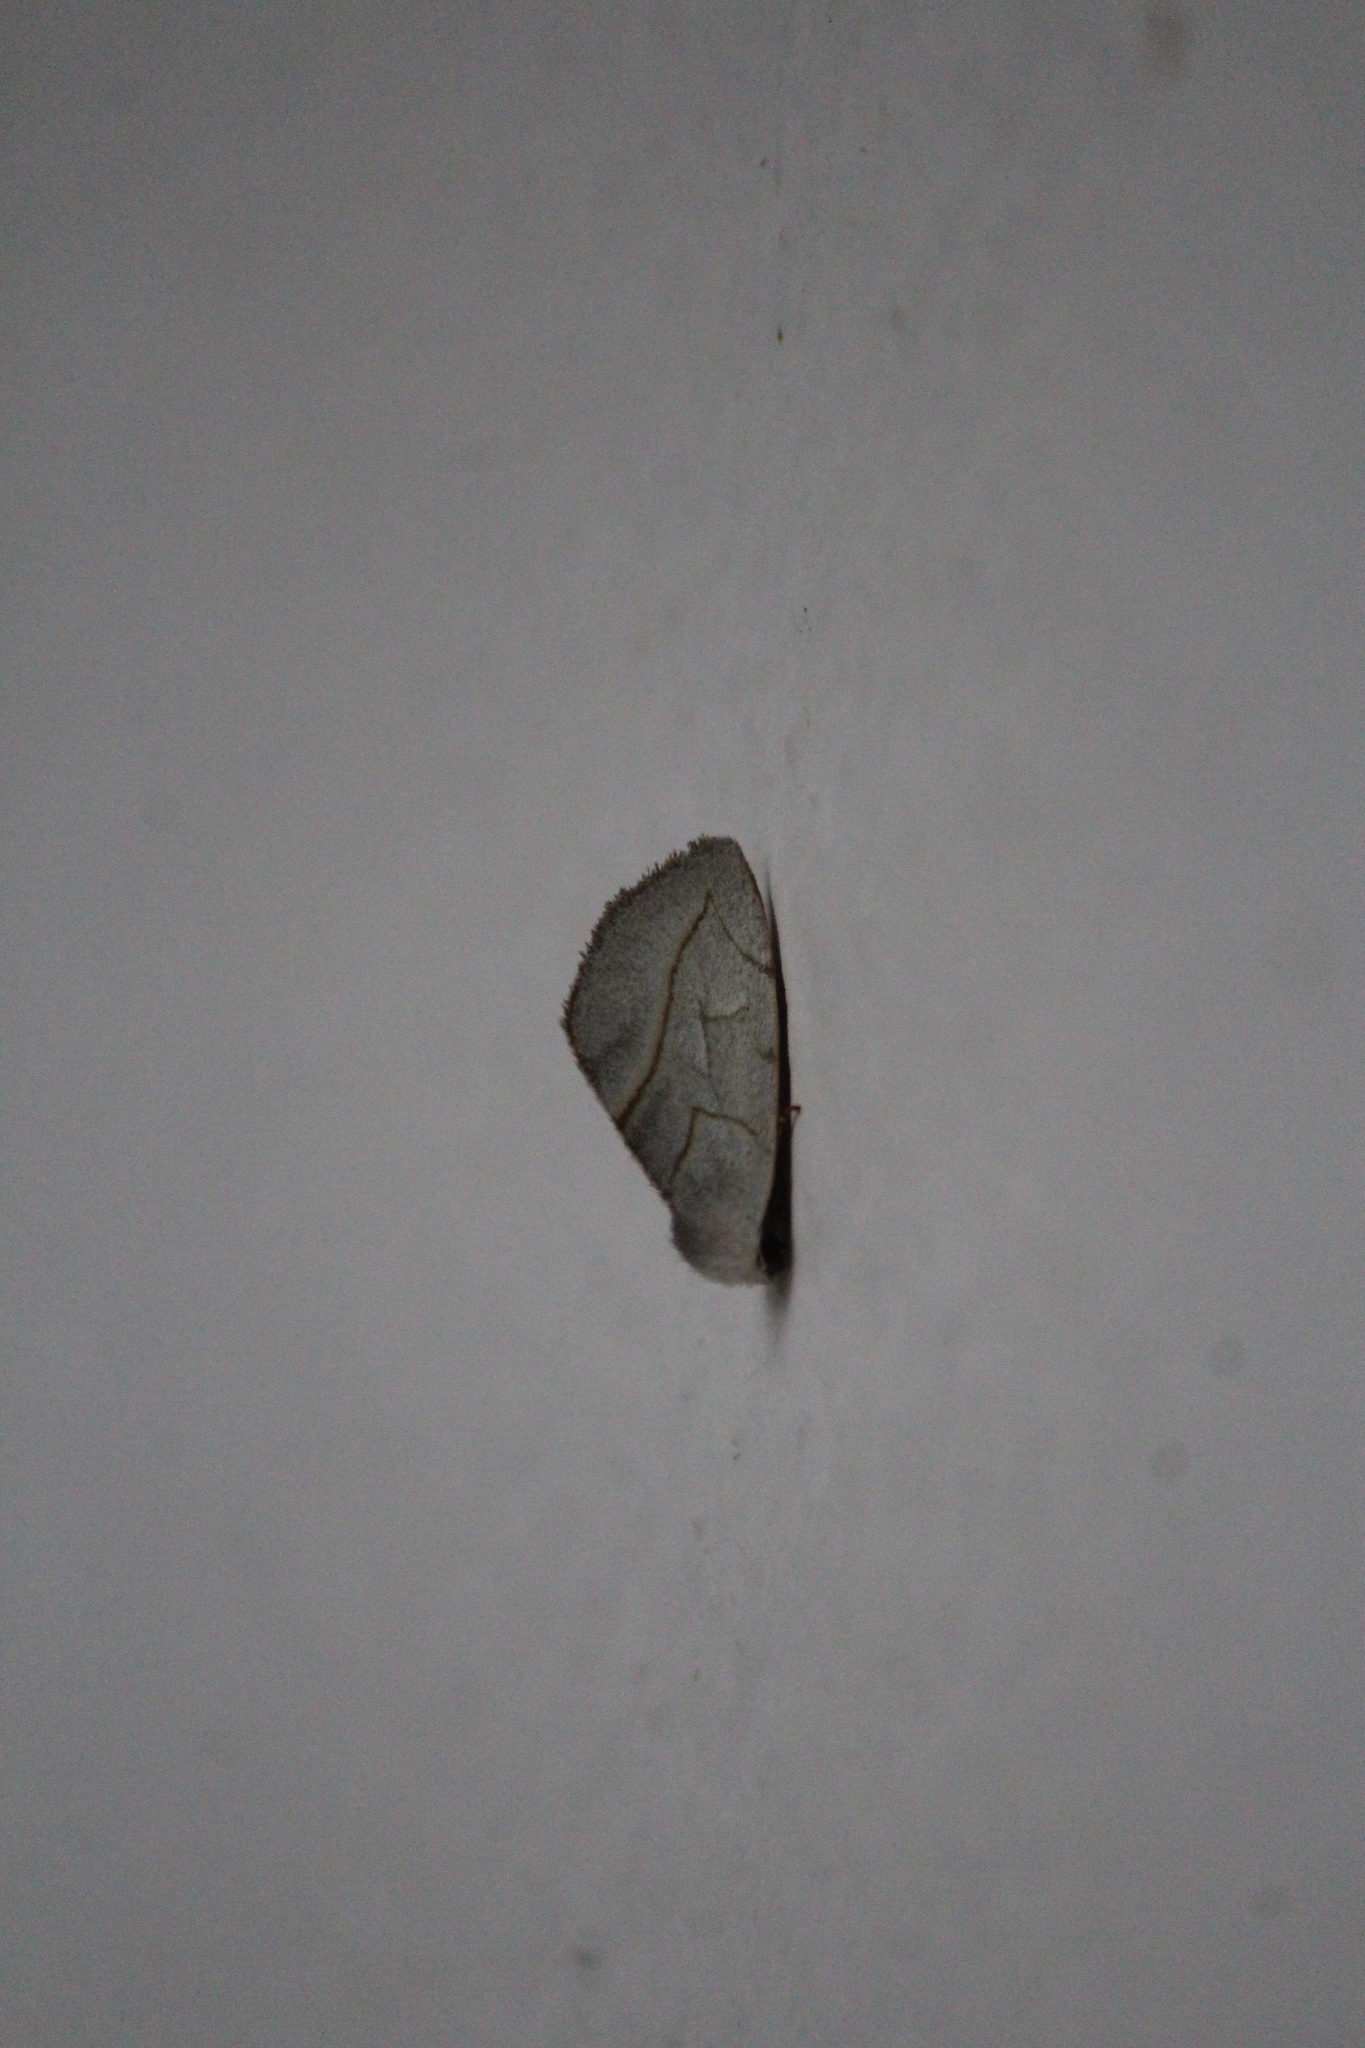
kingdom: Animalia
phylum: Arthropoda
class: Insecta
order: Lepidoptera
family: Noctuidae
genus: Plagiomimicus
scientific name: Plagiomimicus
